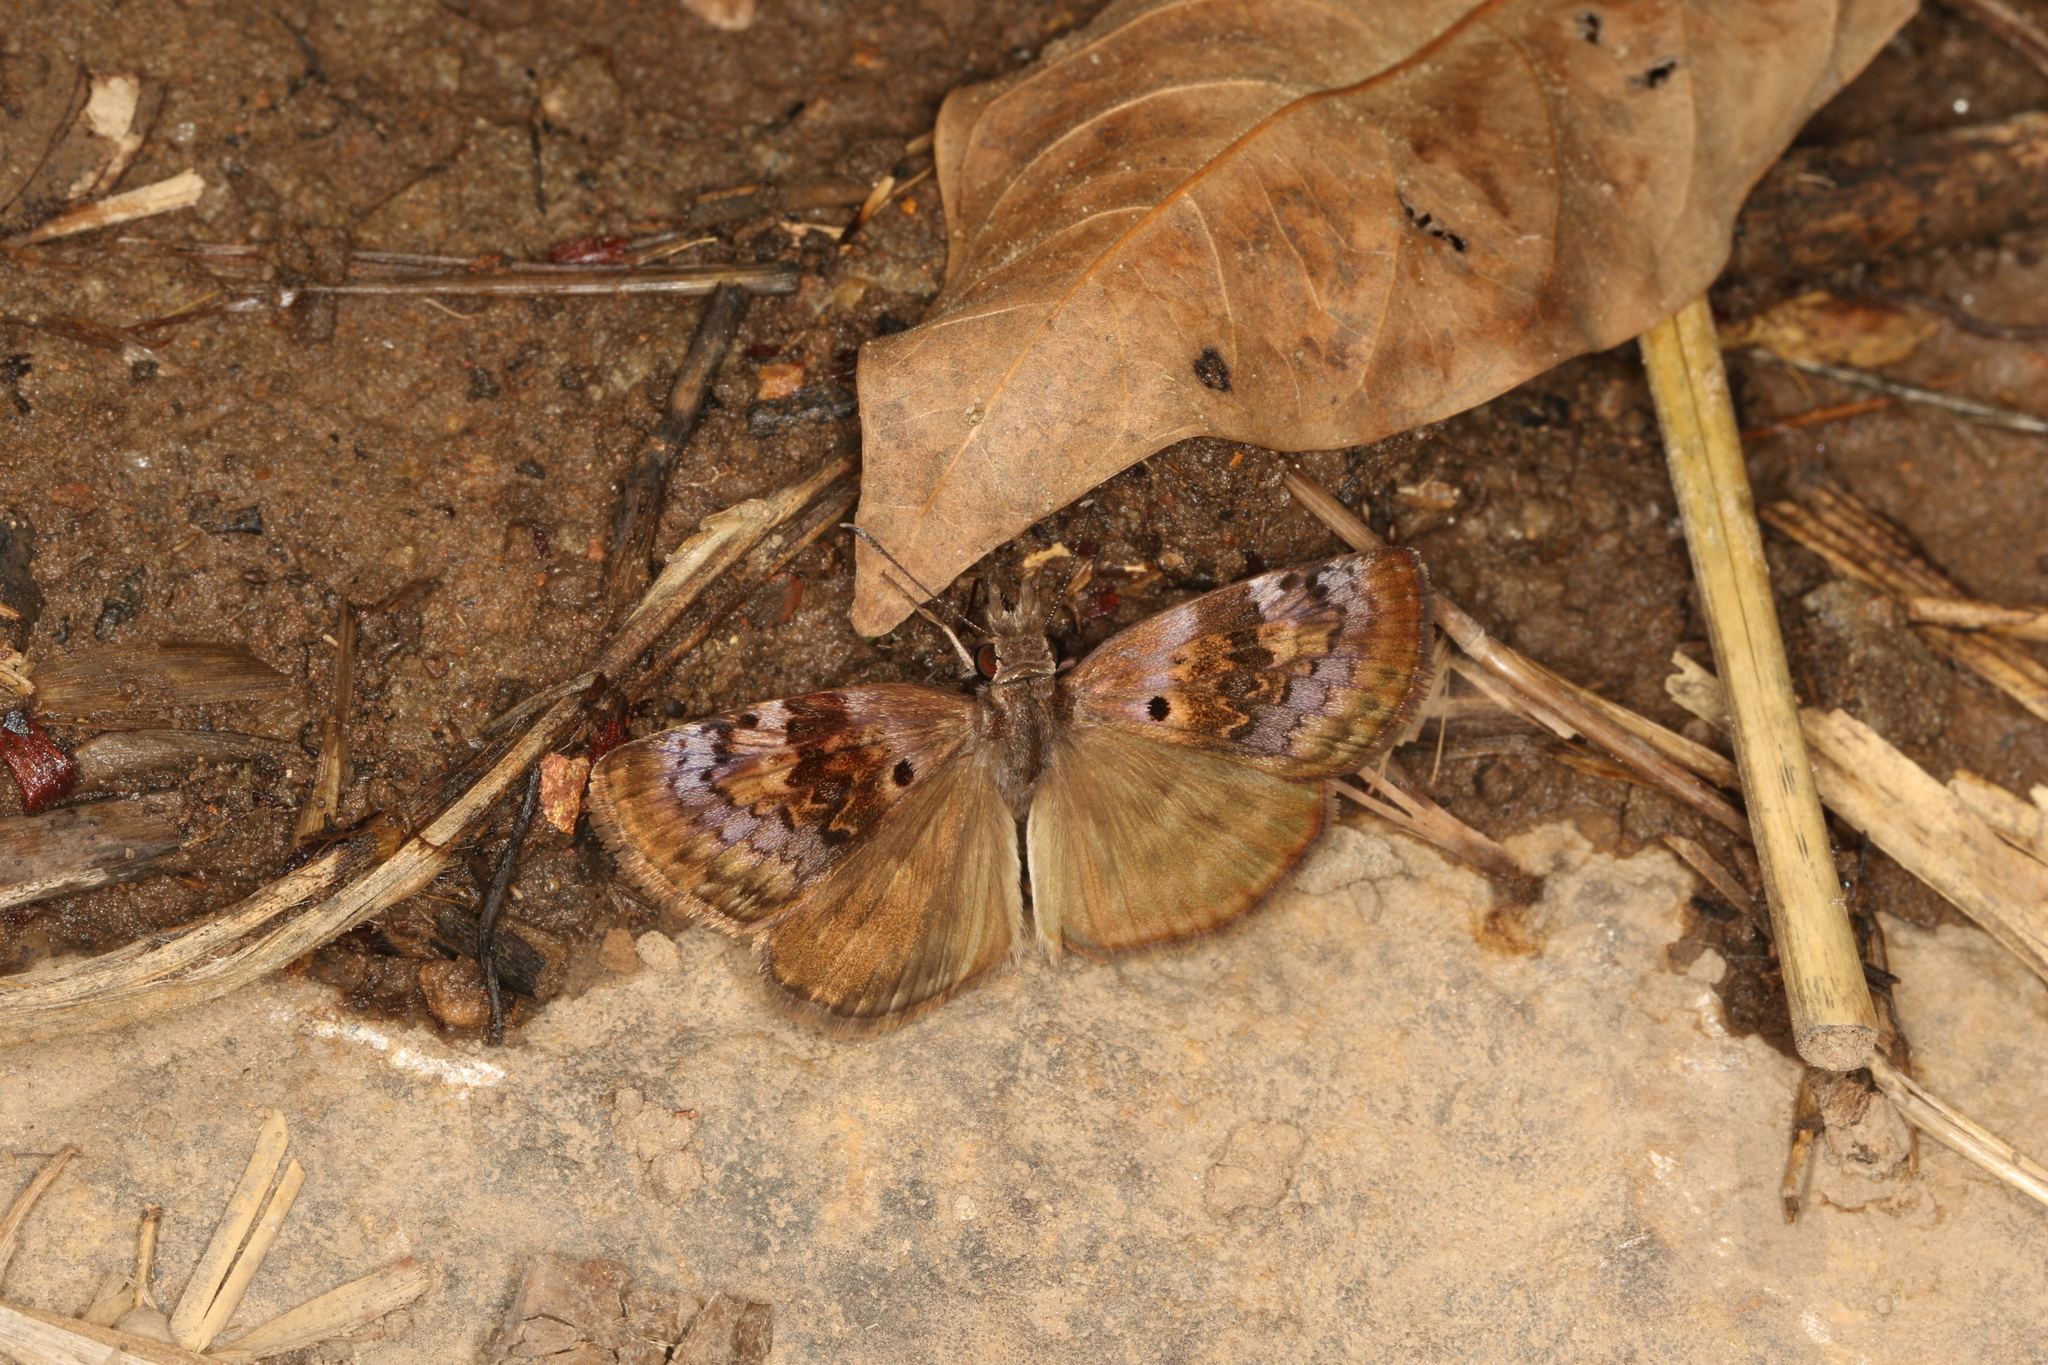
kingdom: Animalia
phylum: Arthropoda
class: Insecta
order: Lepidoptera
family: Hesperiidae
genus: Chiothion
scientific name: Chiothion
